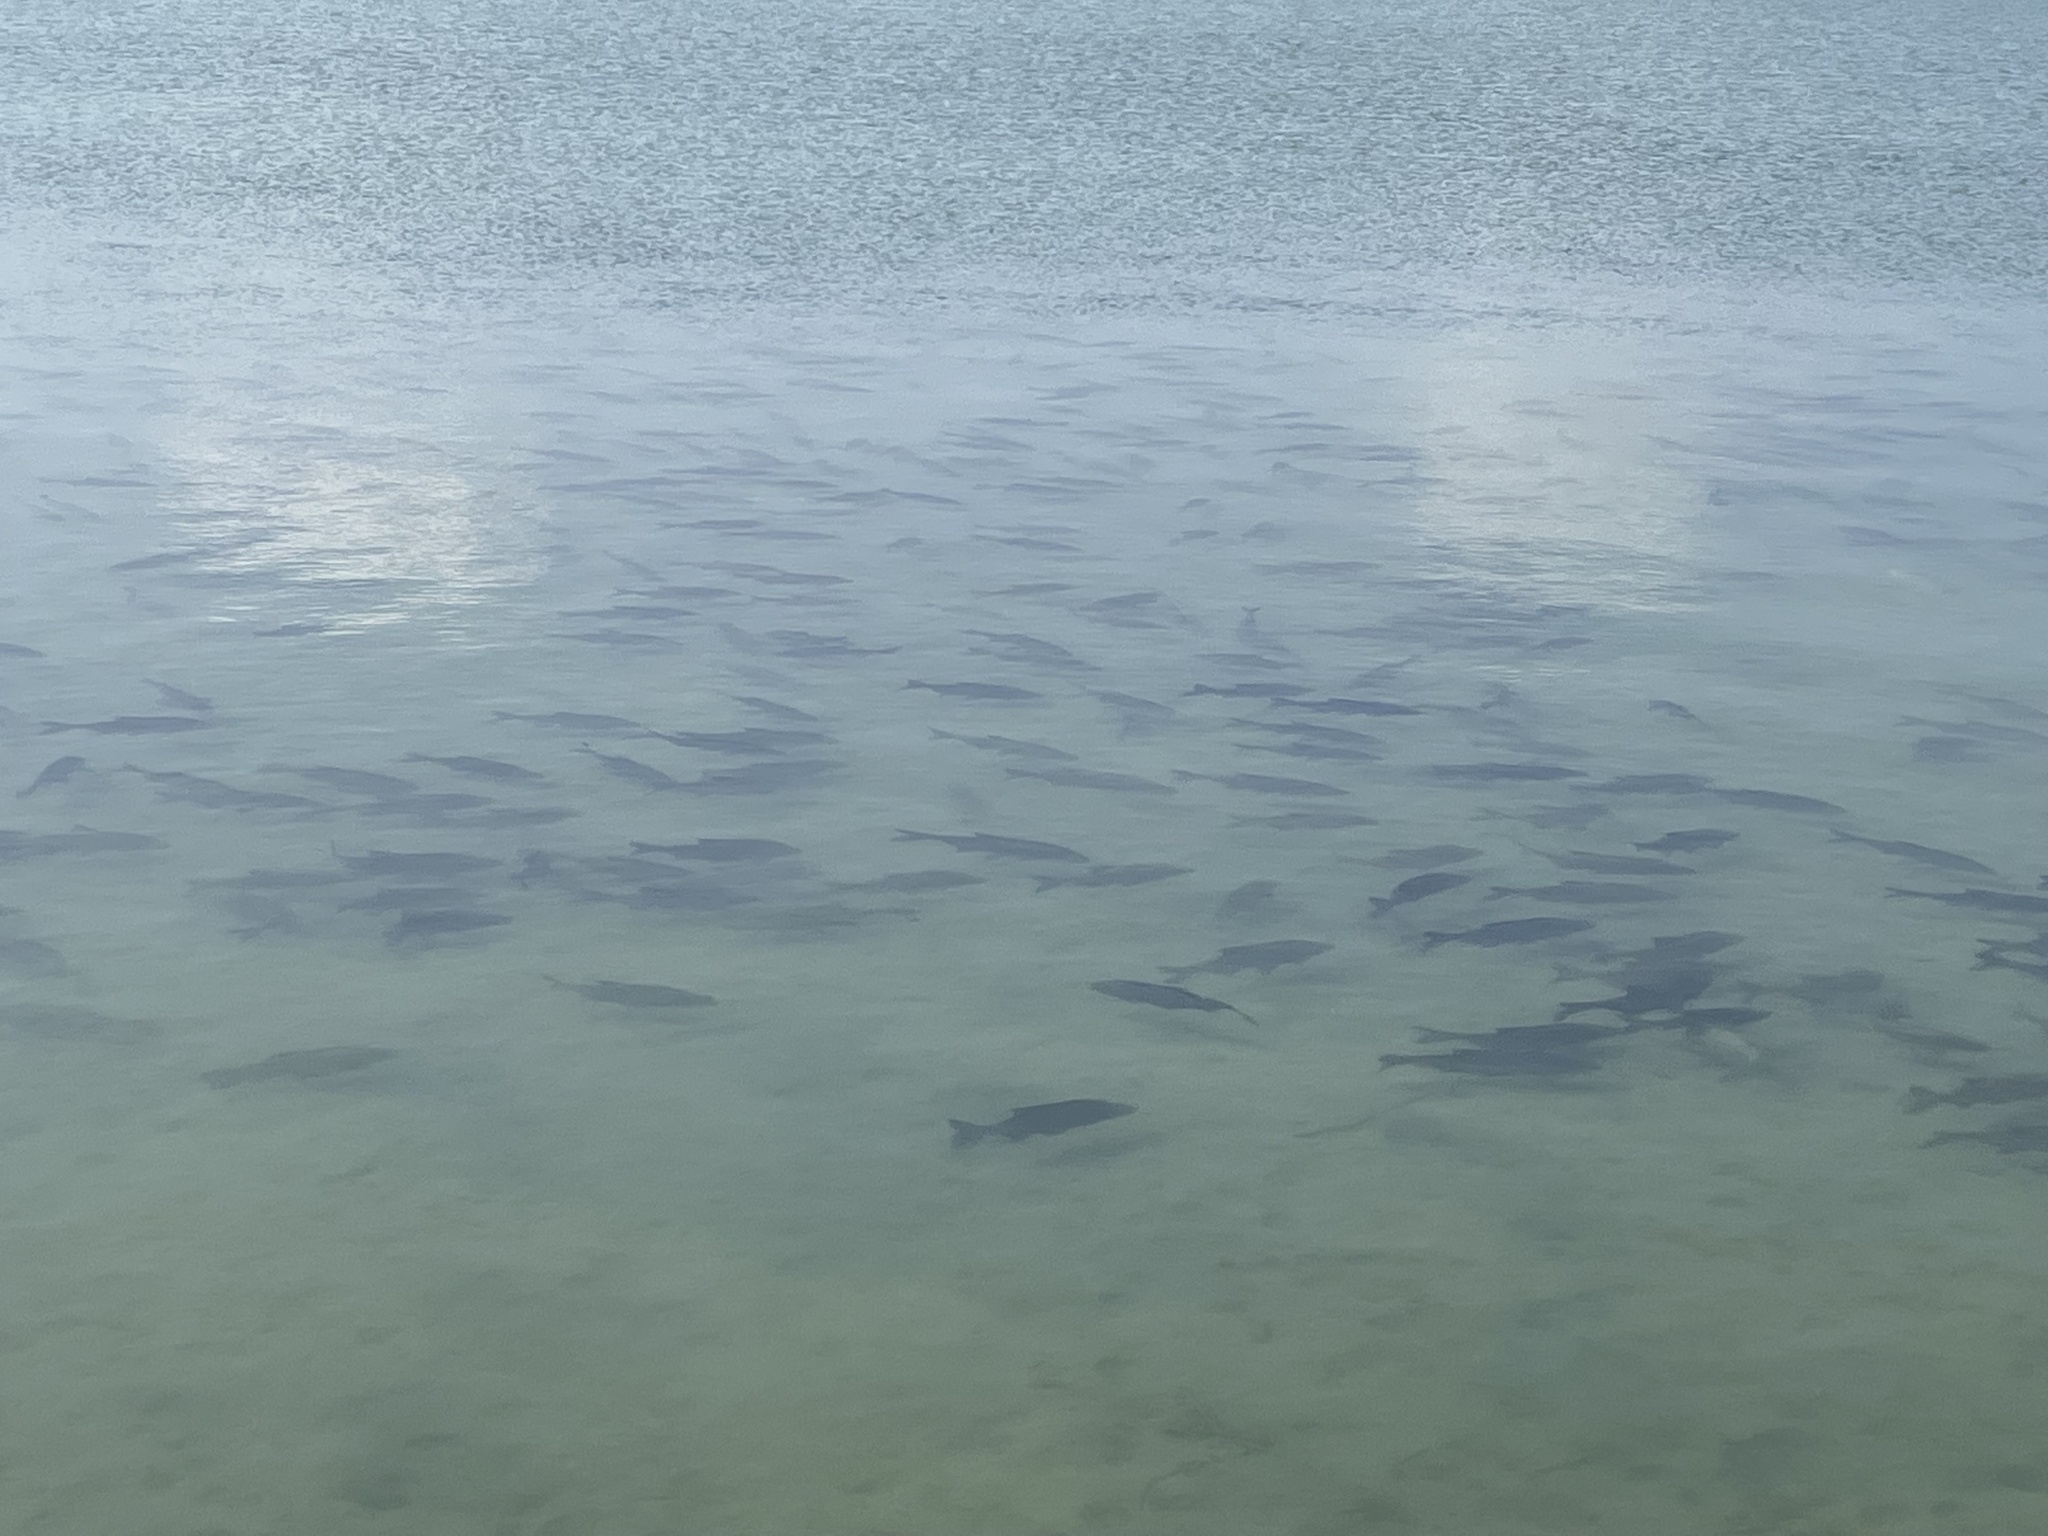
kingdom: Animalia
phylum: Chordata
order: Cypriniformes
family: Cyprinidae
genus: Abramis
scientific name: Abramis brama
